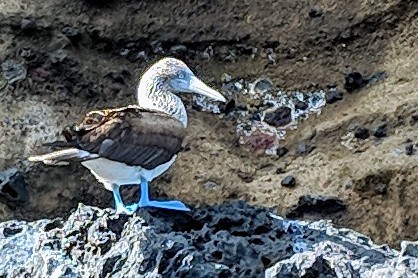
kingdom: Animalia
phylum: Chordata
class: Aves
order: Suliformes
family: Sulidae
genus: Sula
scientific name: Sula nebouxii
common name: Blue-footed booby
